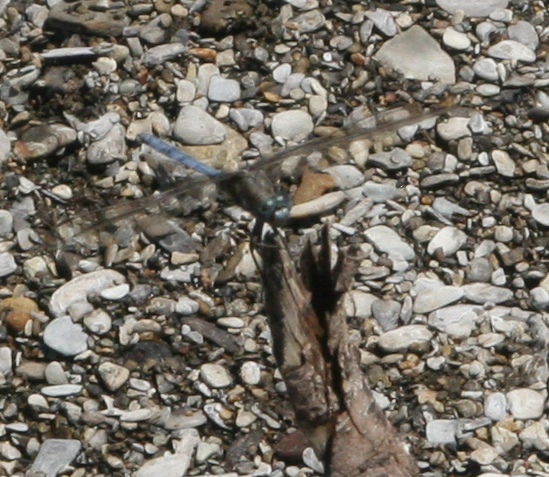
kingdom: Animalia
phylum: Arthropoda
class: Insecta
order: Odonata
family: Libellulidae
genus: Orthetrum
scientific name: Orthetrum ransonnetii
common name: Desert skimmer
